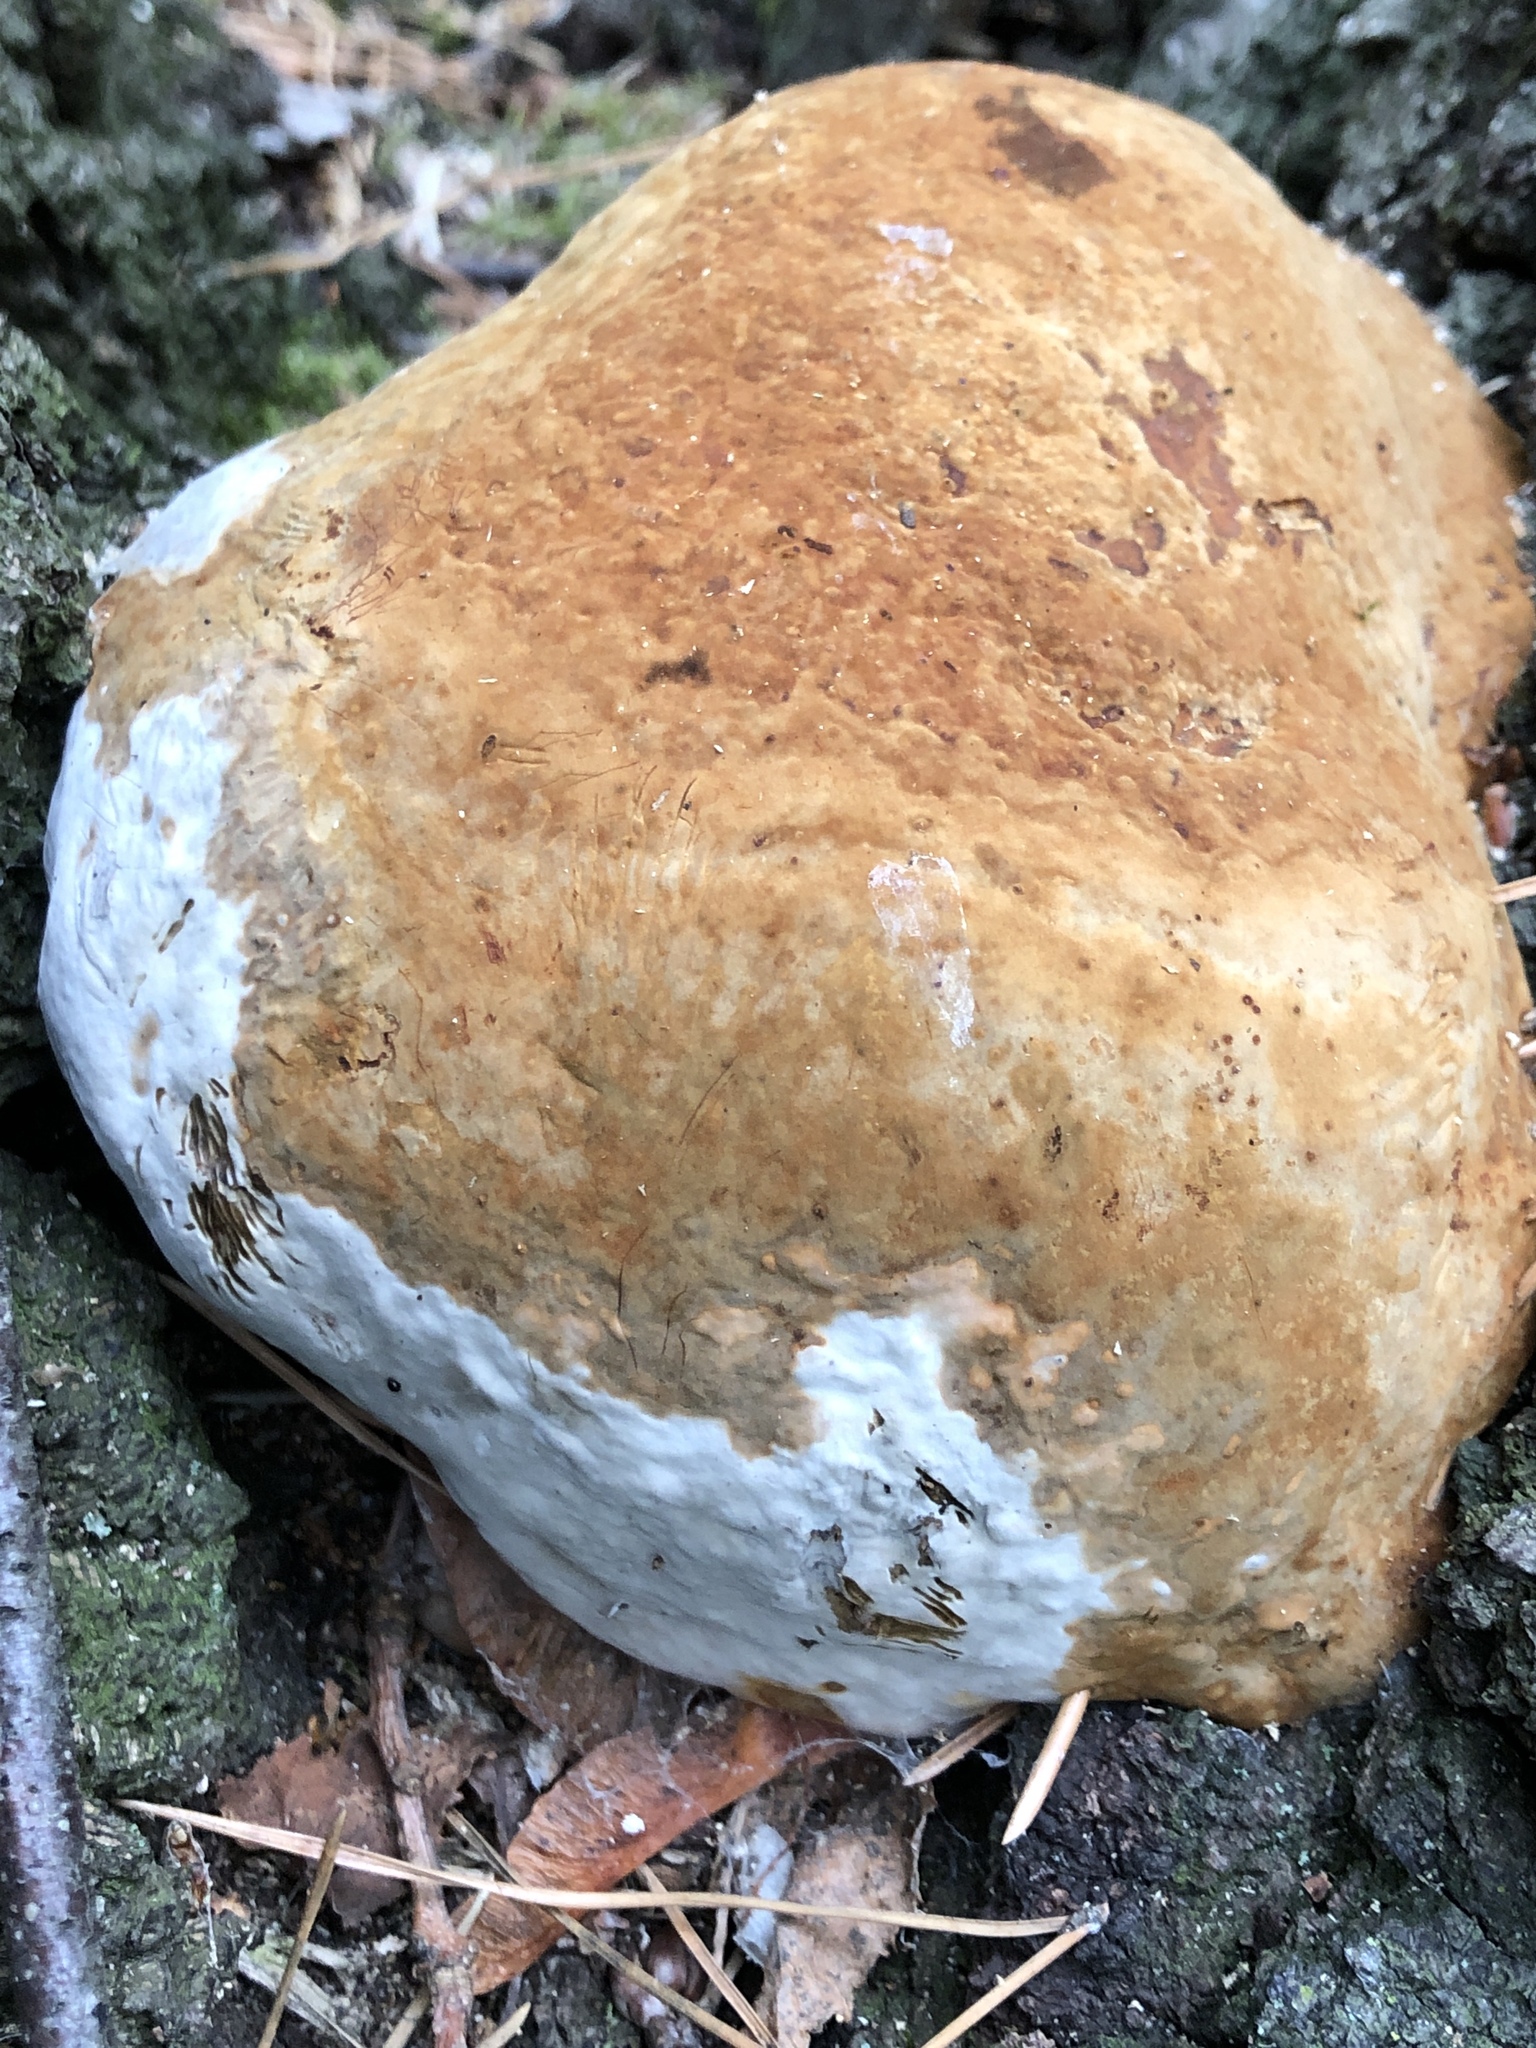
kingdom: Fungi
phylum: Basidiomycota
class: Agaricomycetes
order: Polyporales
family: Polyporaceae
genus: Fomes
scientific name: Fomes fomentarius
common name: Hoof fungus
